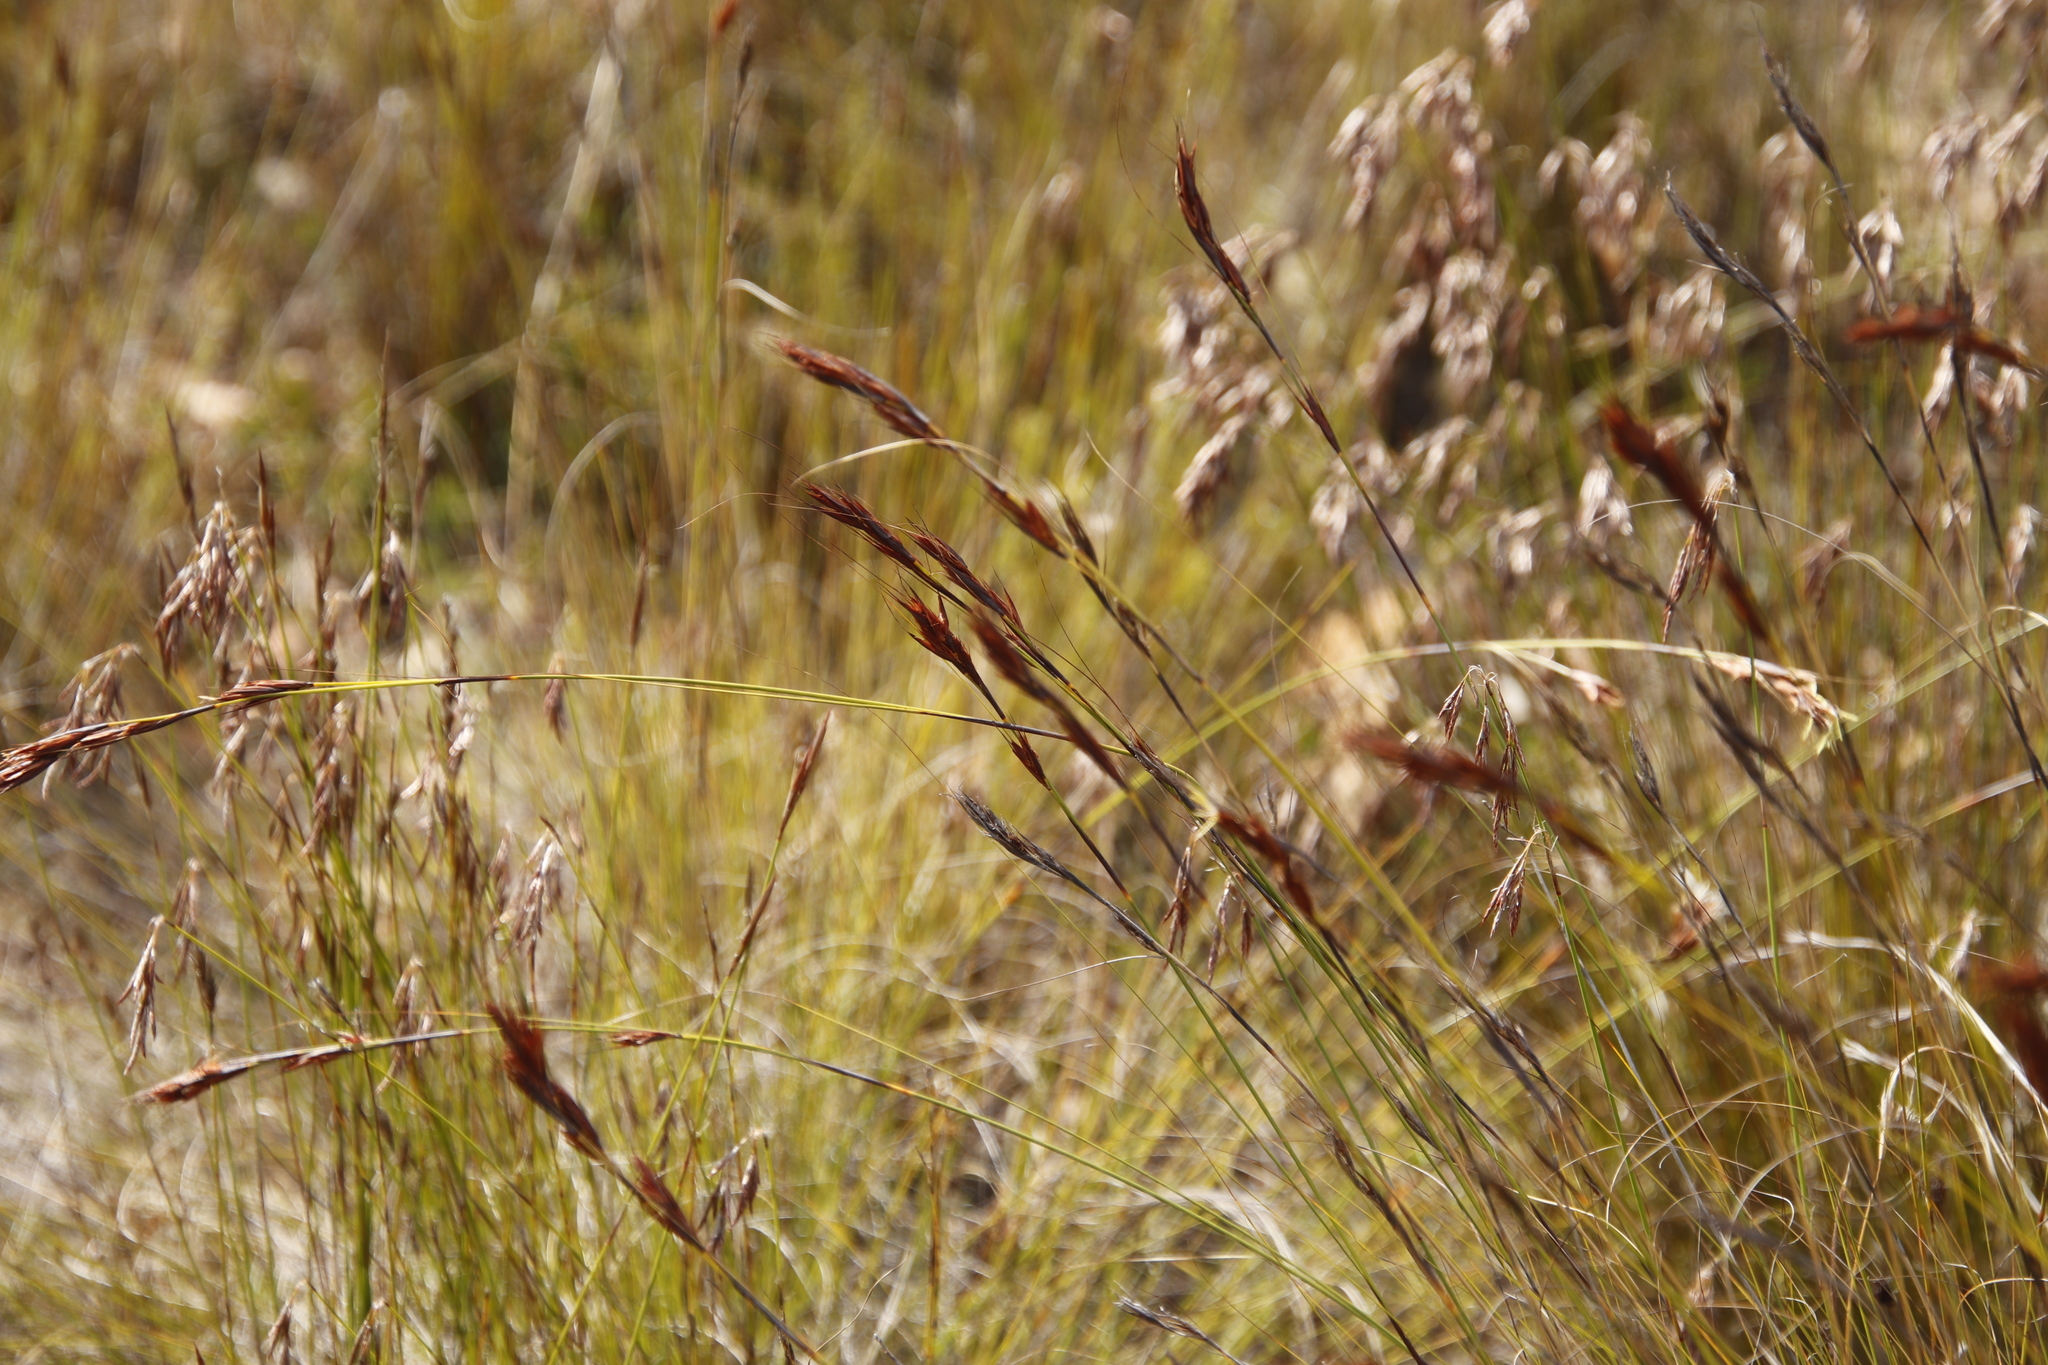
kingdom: Plantae
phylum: Tracheophyta
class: Liliopsida
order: Poales
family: Cyperaceae
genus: Tetraria
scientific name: Tetraria ustulata
